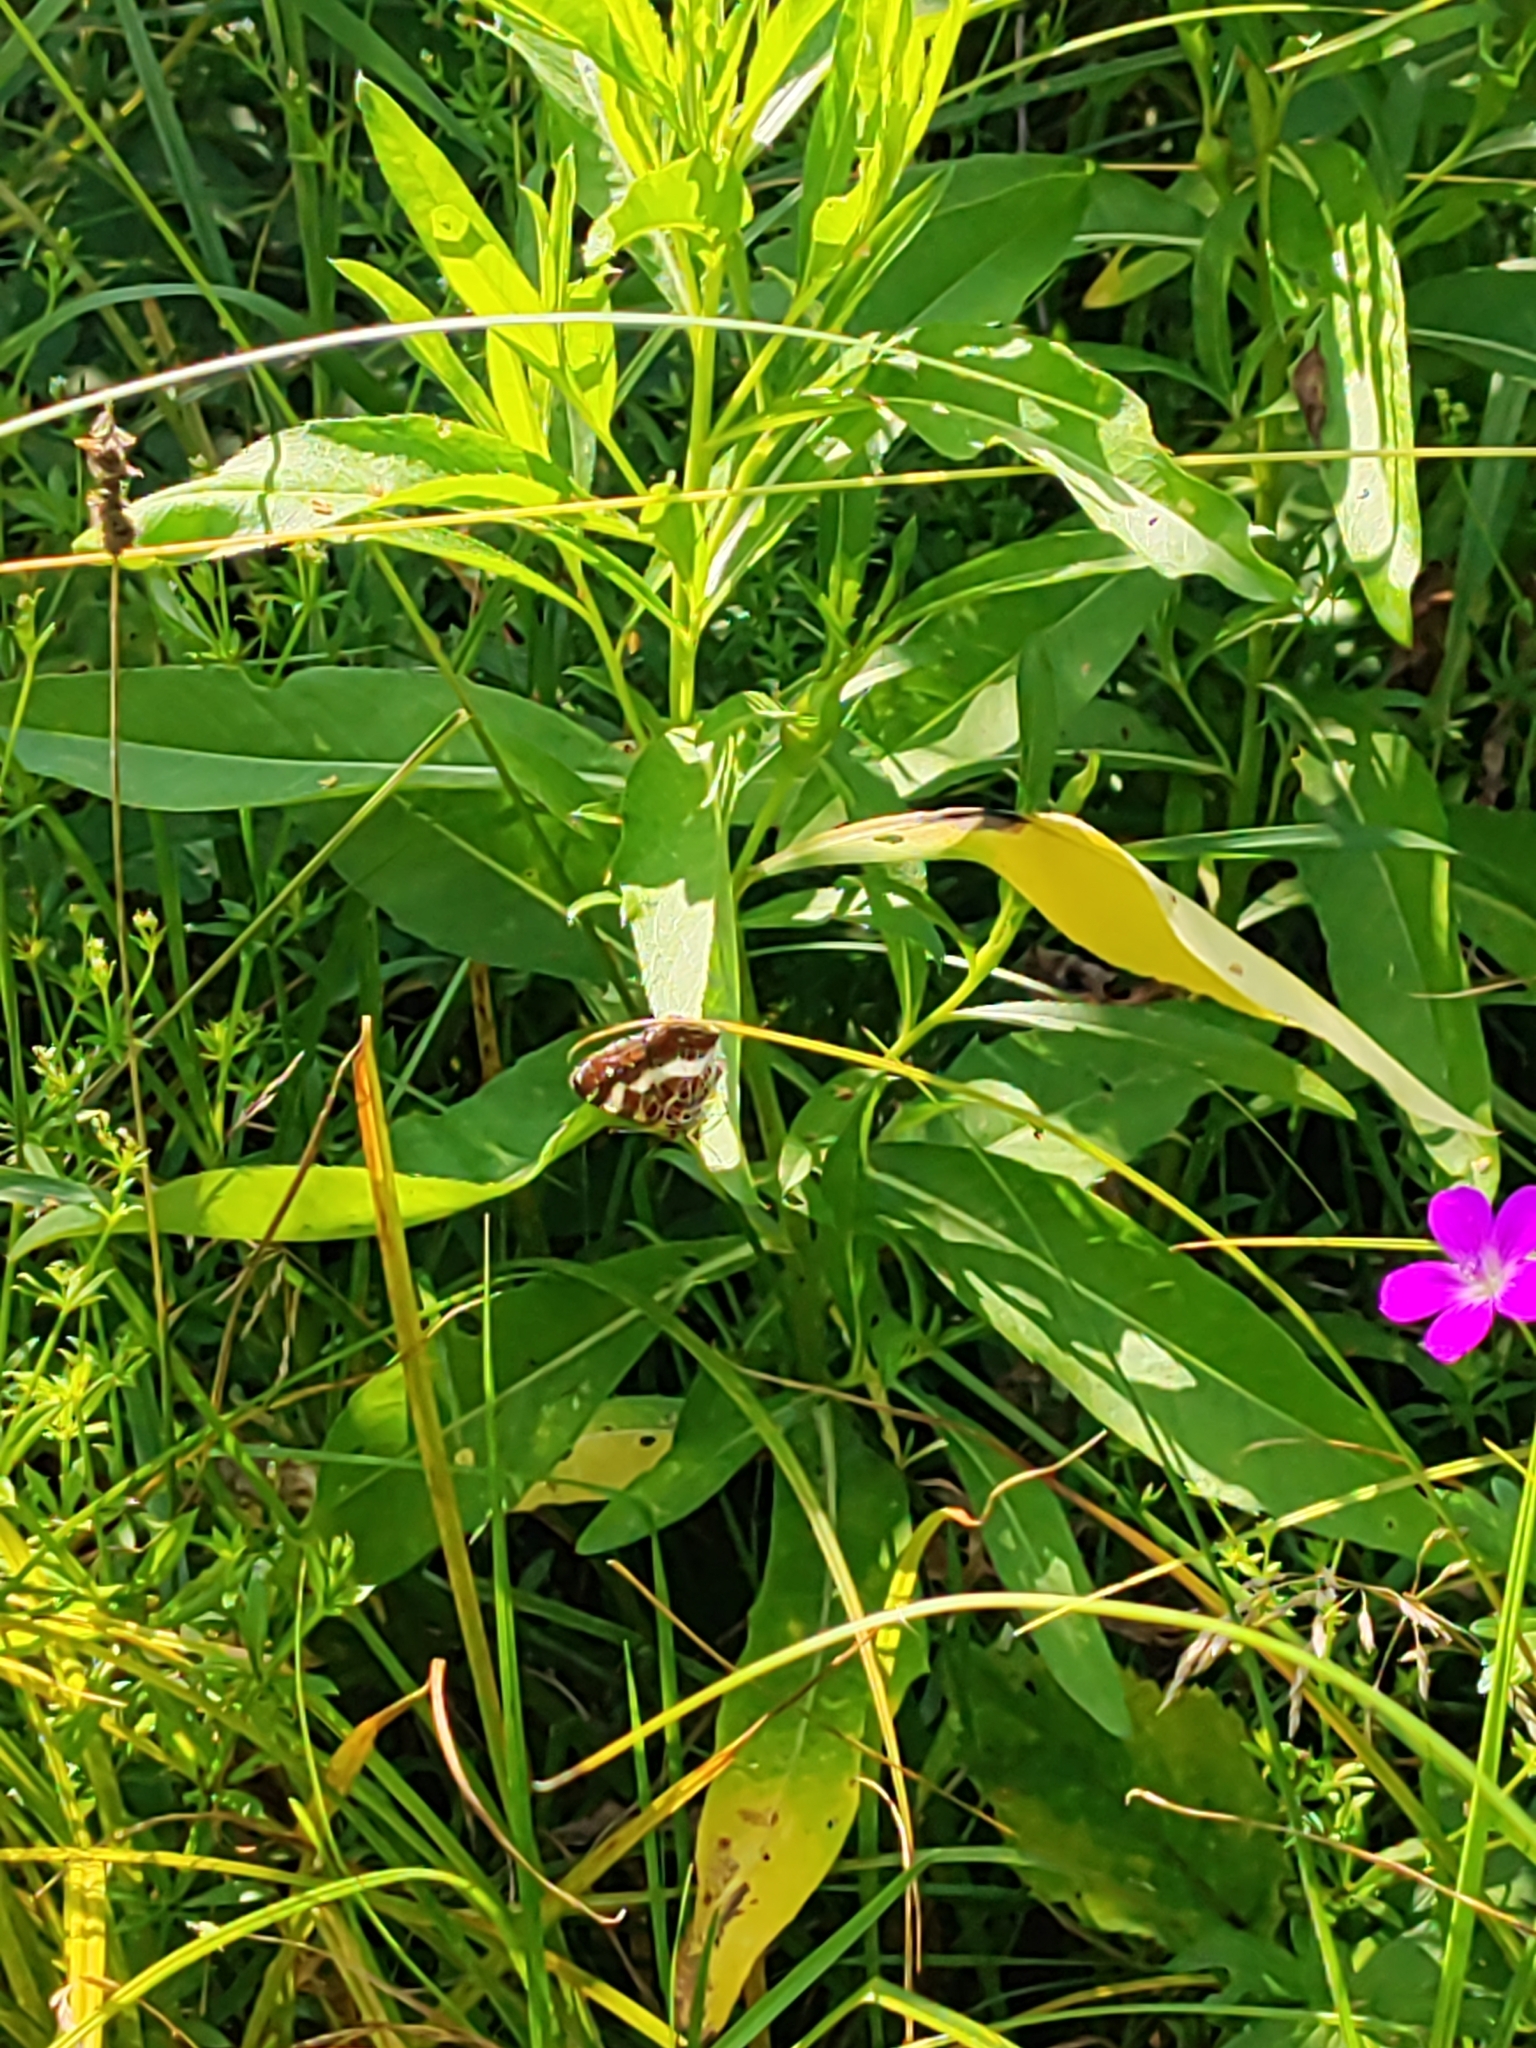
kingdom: Animalia
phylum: Arthropoda
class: Insecta
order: Lepidoptera
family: Nymphalidae
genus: Araschnia
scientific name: Araschnia levana
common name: Map butterfly
